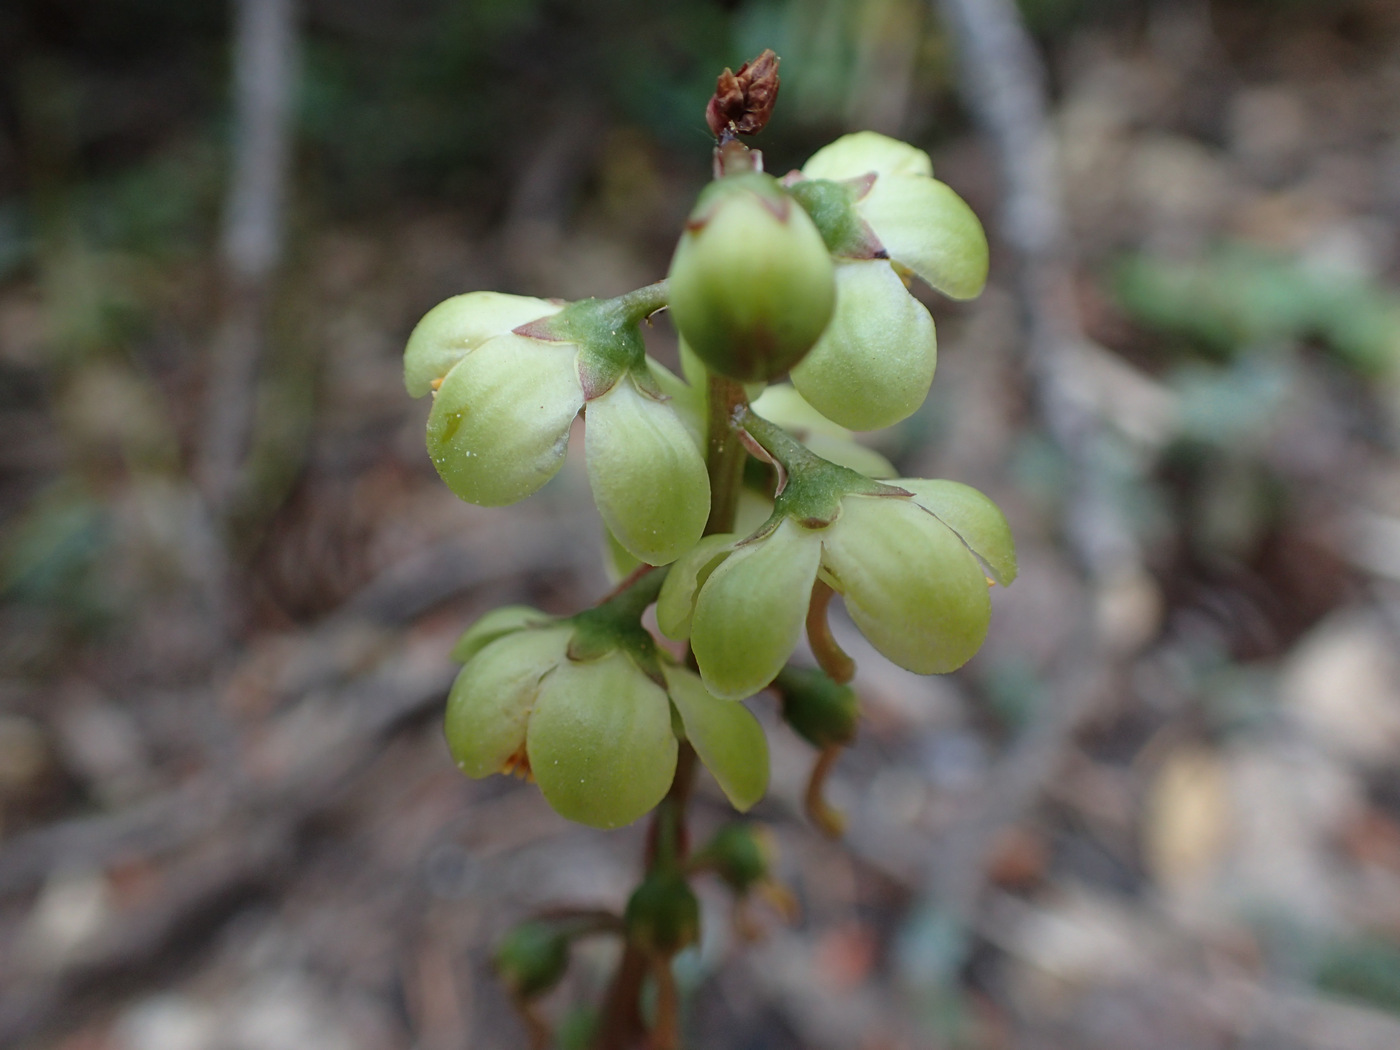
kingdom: Plantae
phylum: Tracheophyta
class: Magnoliopsida
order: Ericales
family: Ericaceae
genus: Pyrola
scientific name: Pyrola picta
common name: White-vein wintergreen
